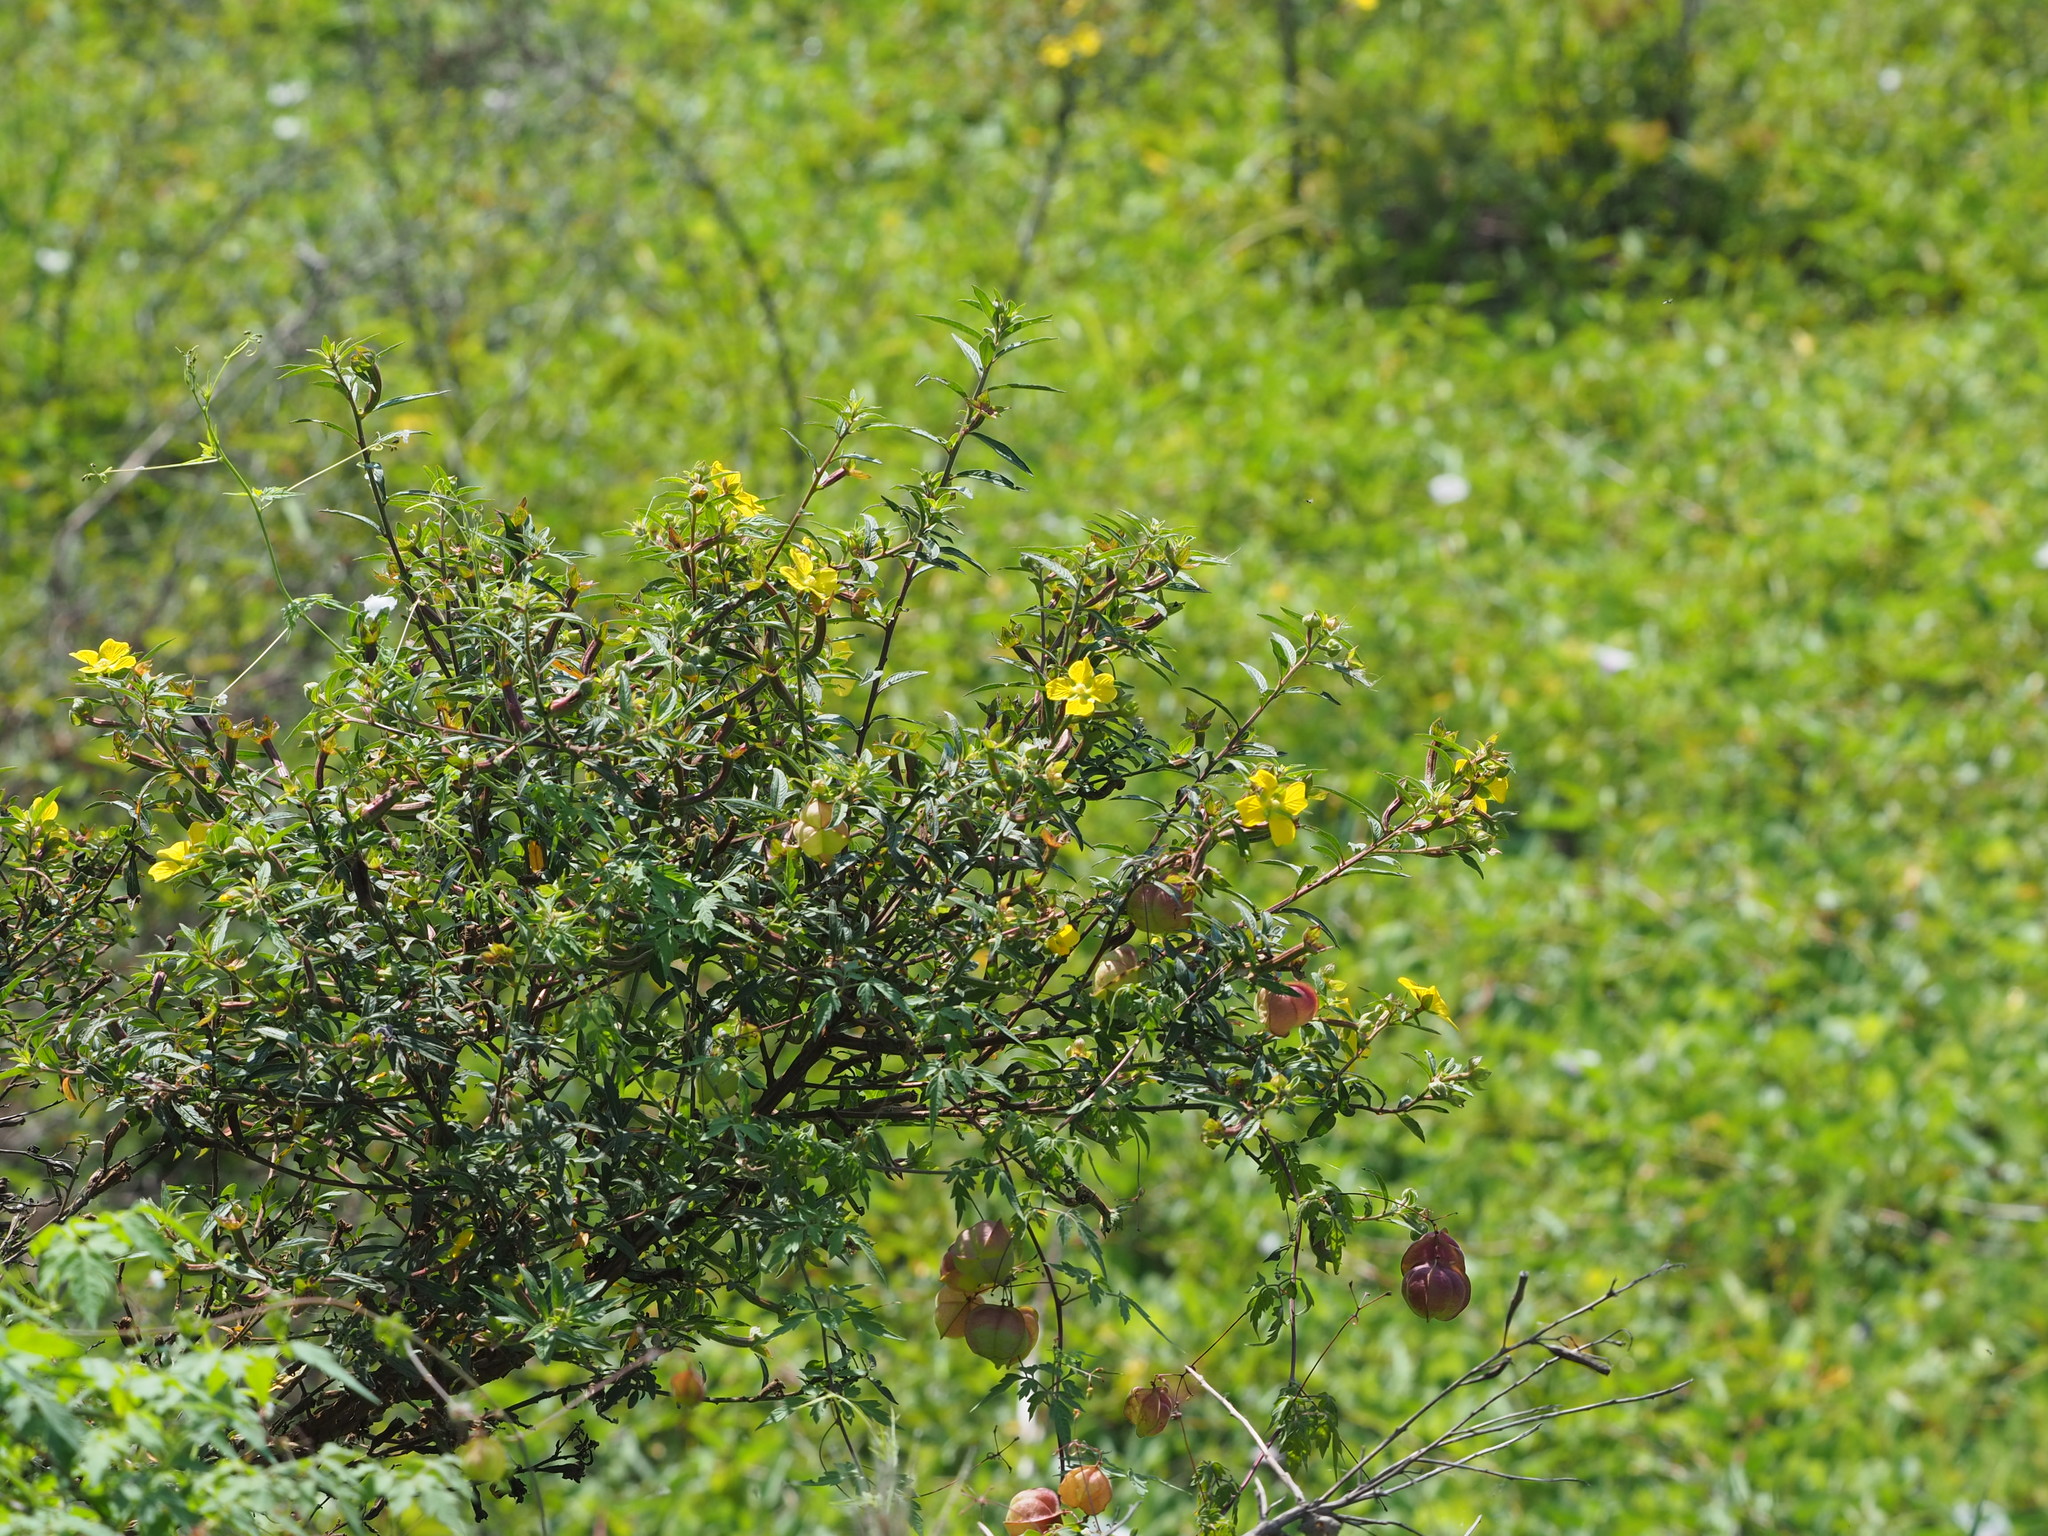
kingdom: Plantae
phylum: Tracheophyta
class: Magnoliopsida
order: Myrtales
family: Onagraceae
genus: Ludwigia
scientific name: Ludwigia octovalvis
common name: Water-primrose
